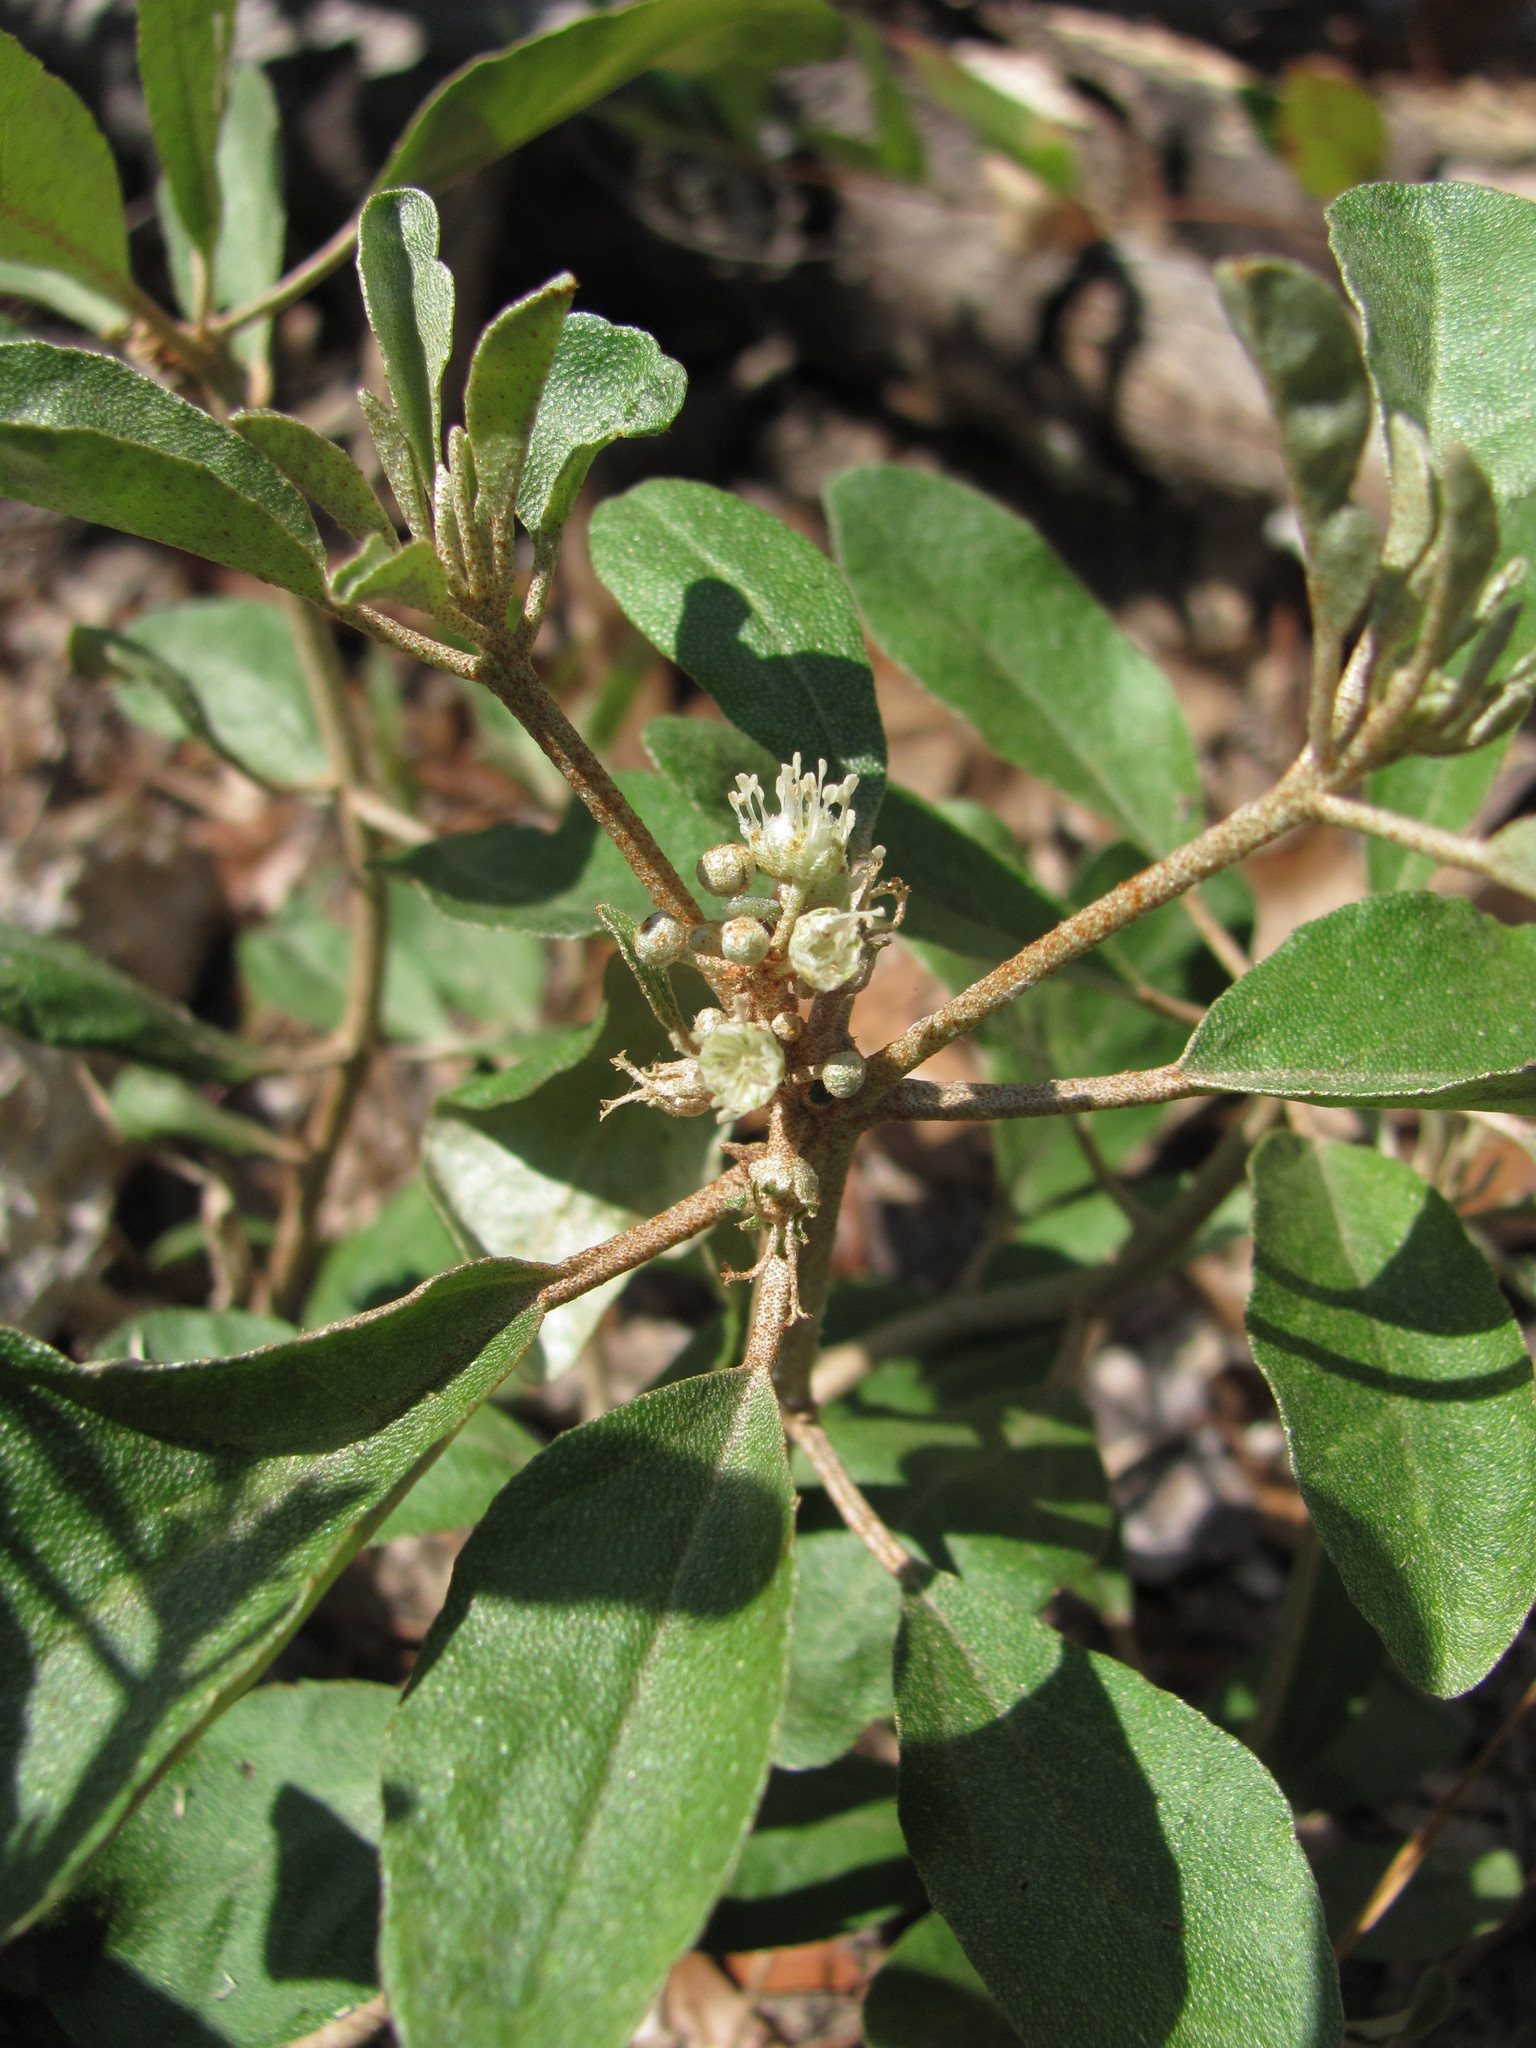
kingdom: Plantae
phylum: Tracheophyta
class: Magnoliopsida
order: Malpighiales
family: Euphorbiaceae
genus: Croton
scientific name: Croton argyranthemus
